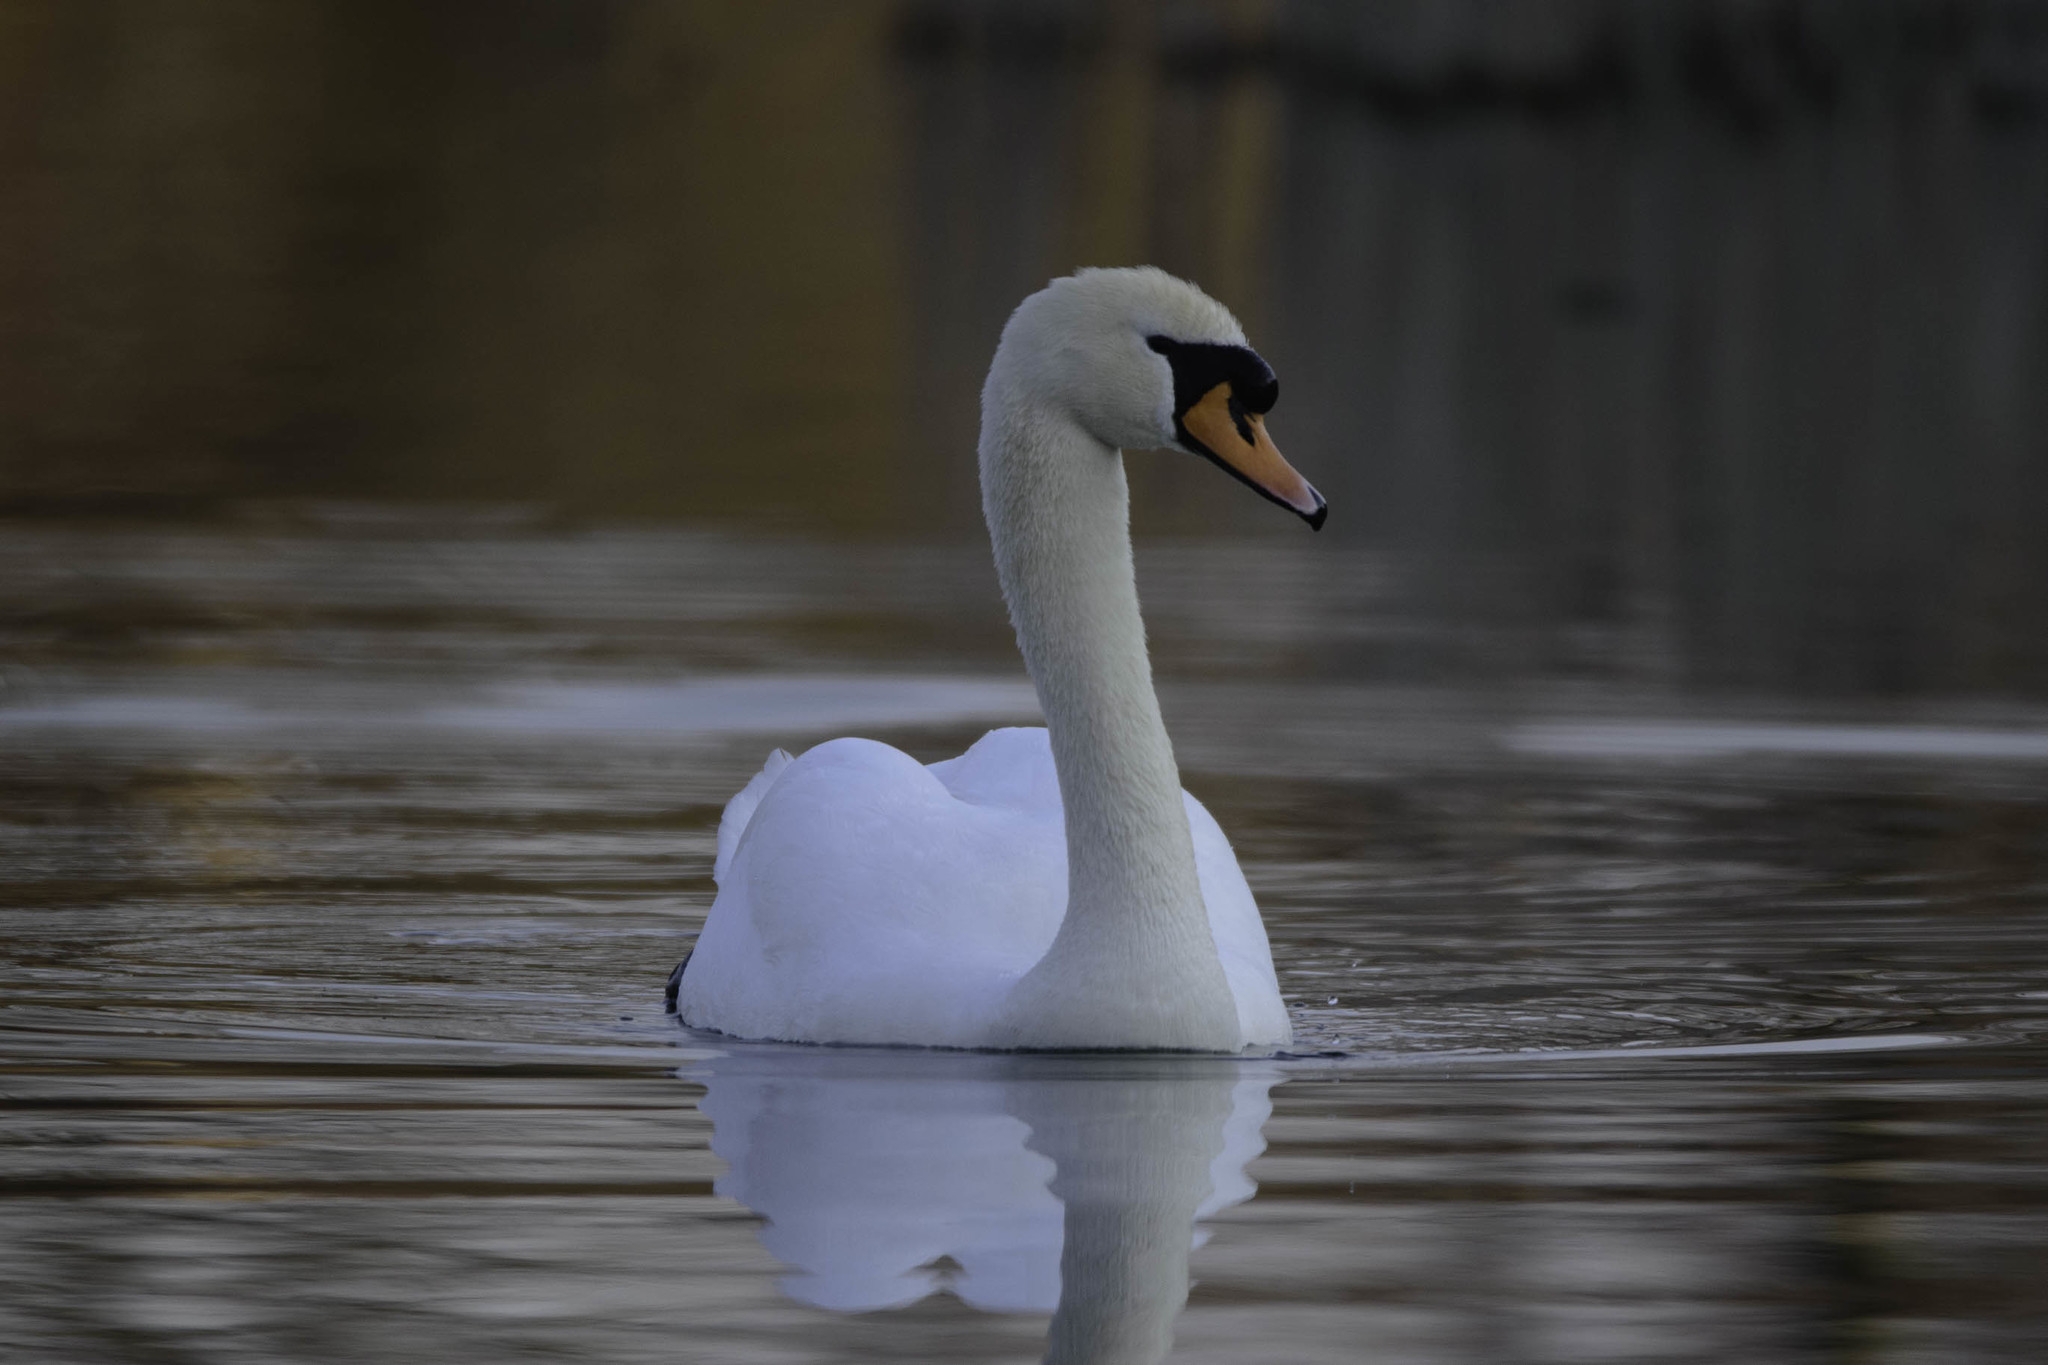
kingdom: Animalia
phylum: Chordata
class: Aves
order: Anseriformes
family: Anatidae
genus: Cygnus
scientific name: Cygnus olor
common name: Mute swan
